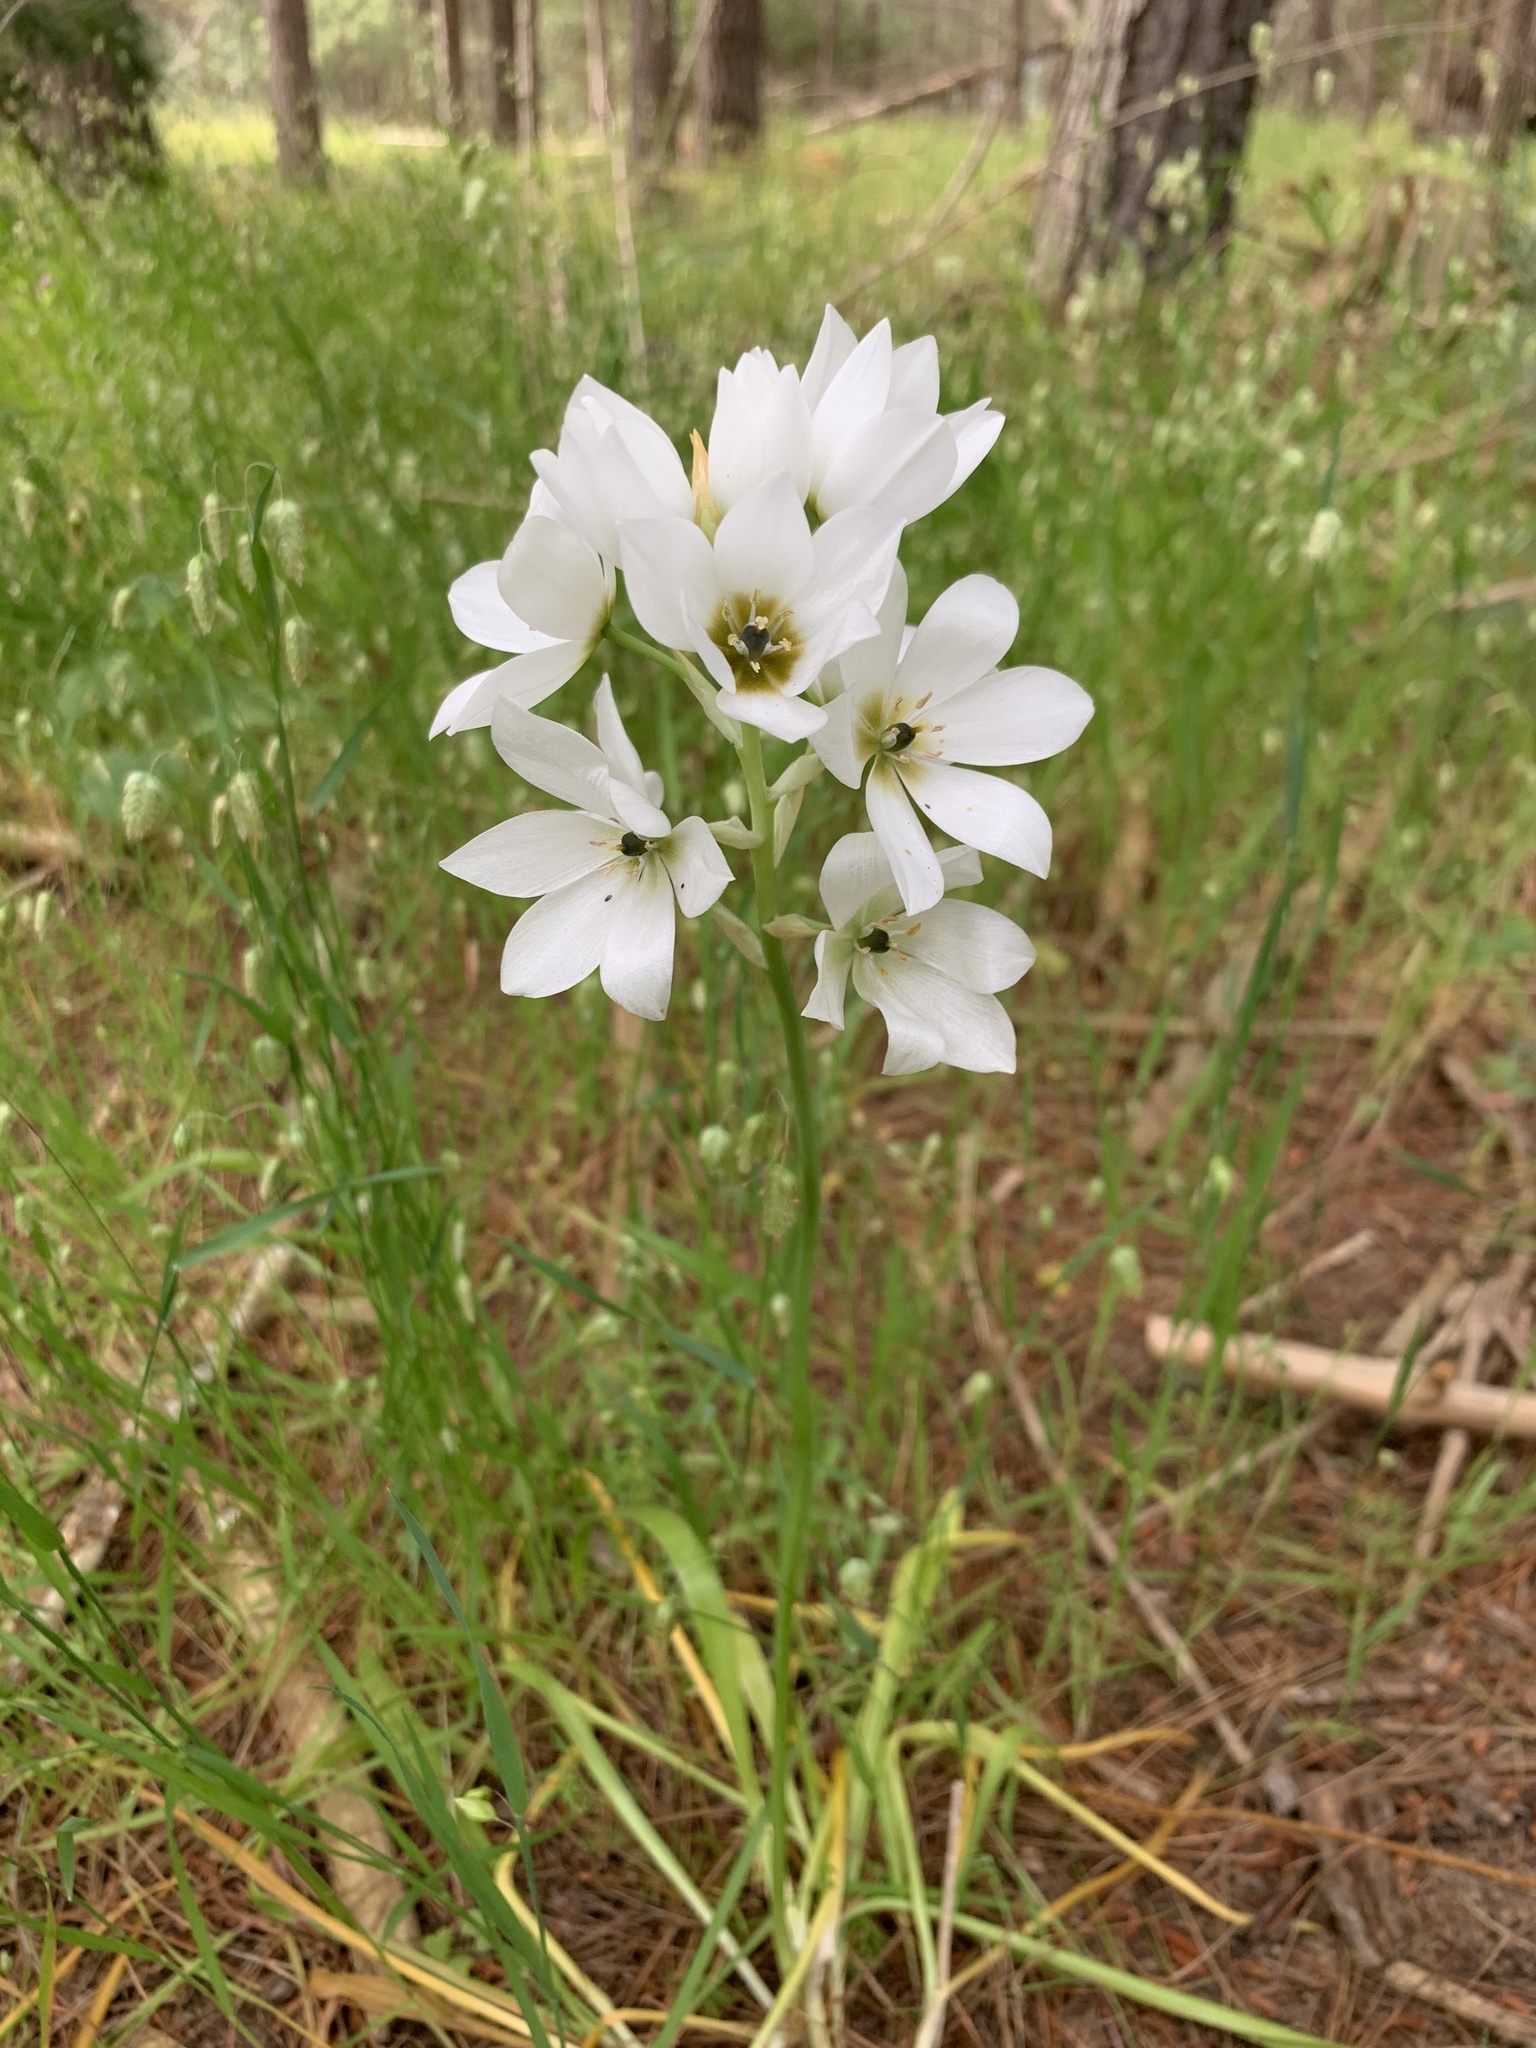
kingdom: Plantae
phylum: Tracheophyta
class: Liliopsida
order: Asparagales
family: Asparagaceae
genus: Ornithogalum
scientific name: Ornithogalum thyrsoides
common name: Chincherinchee
